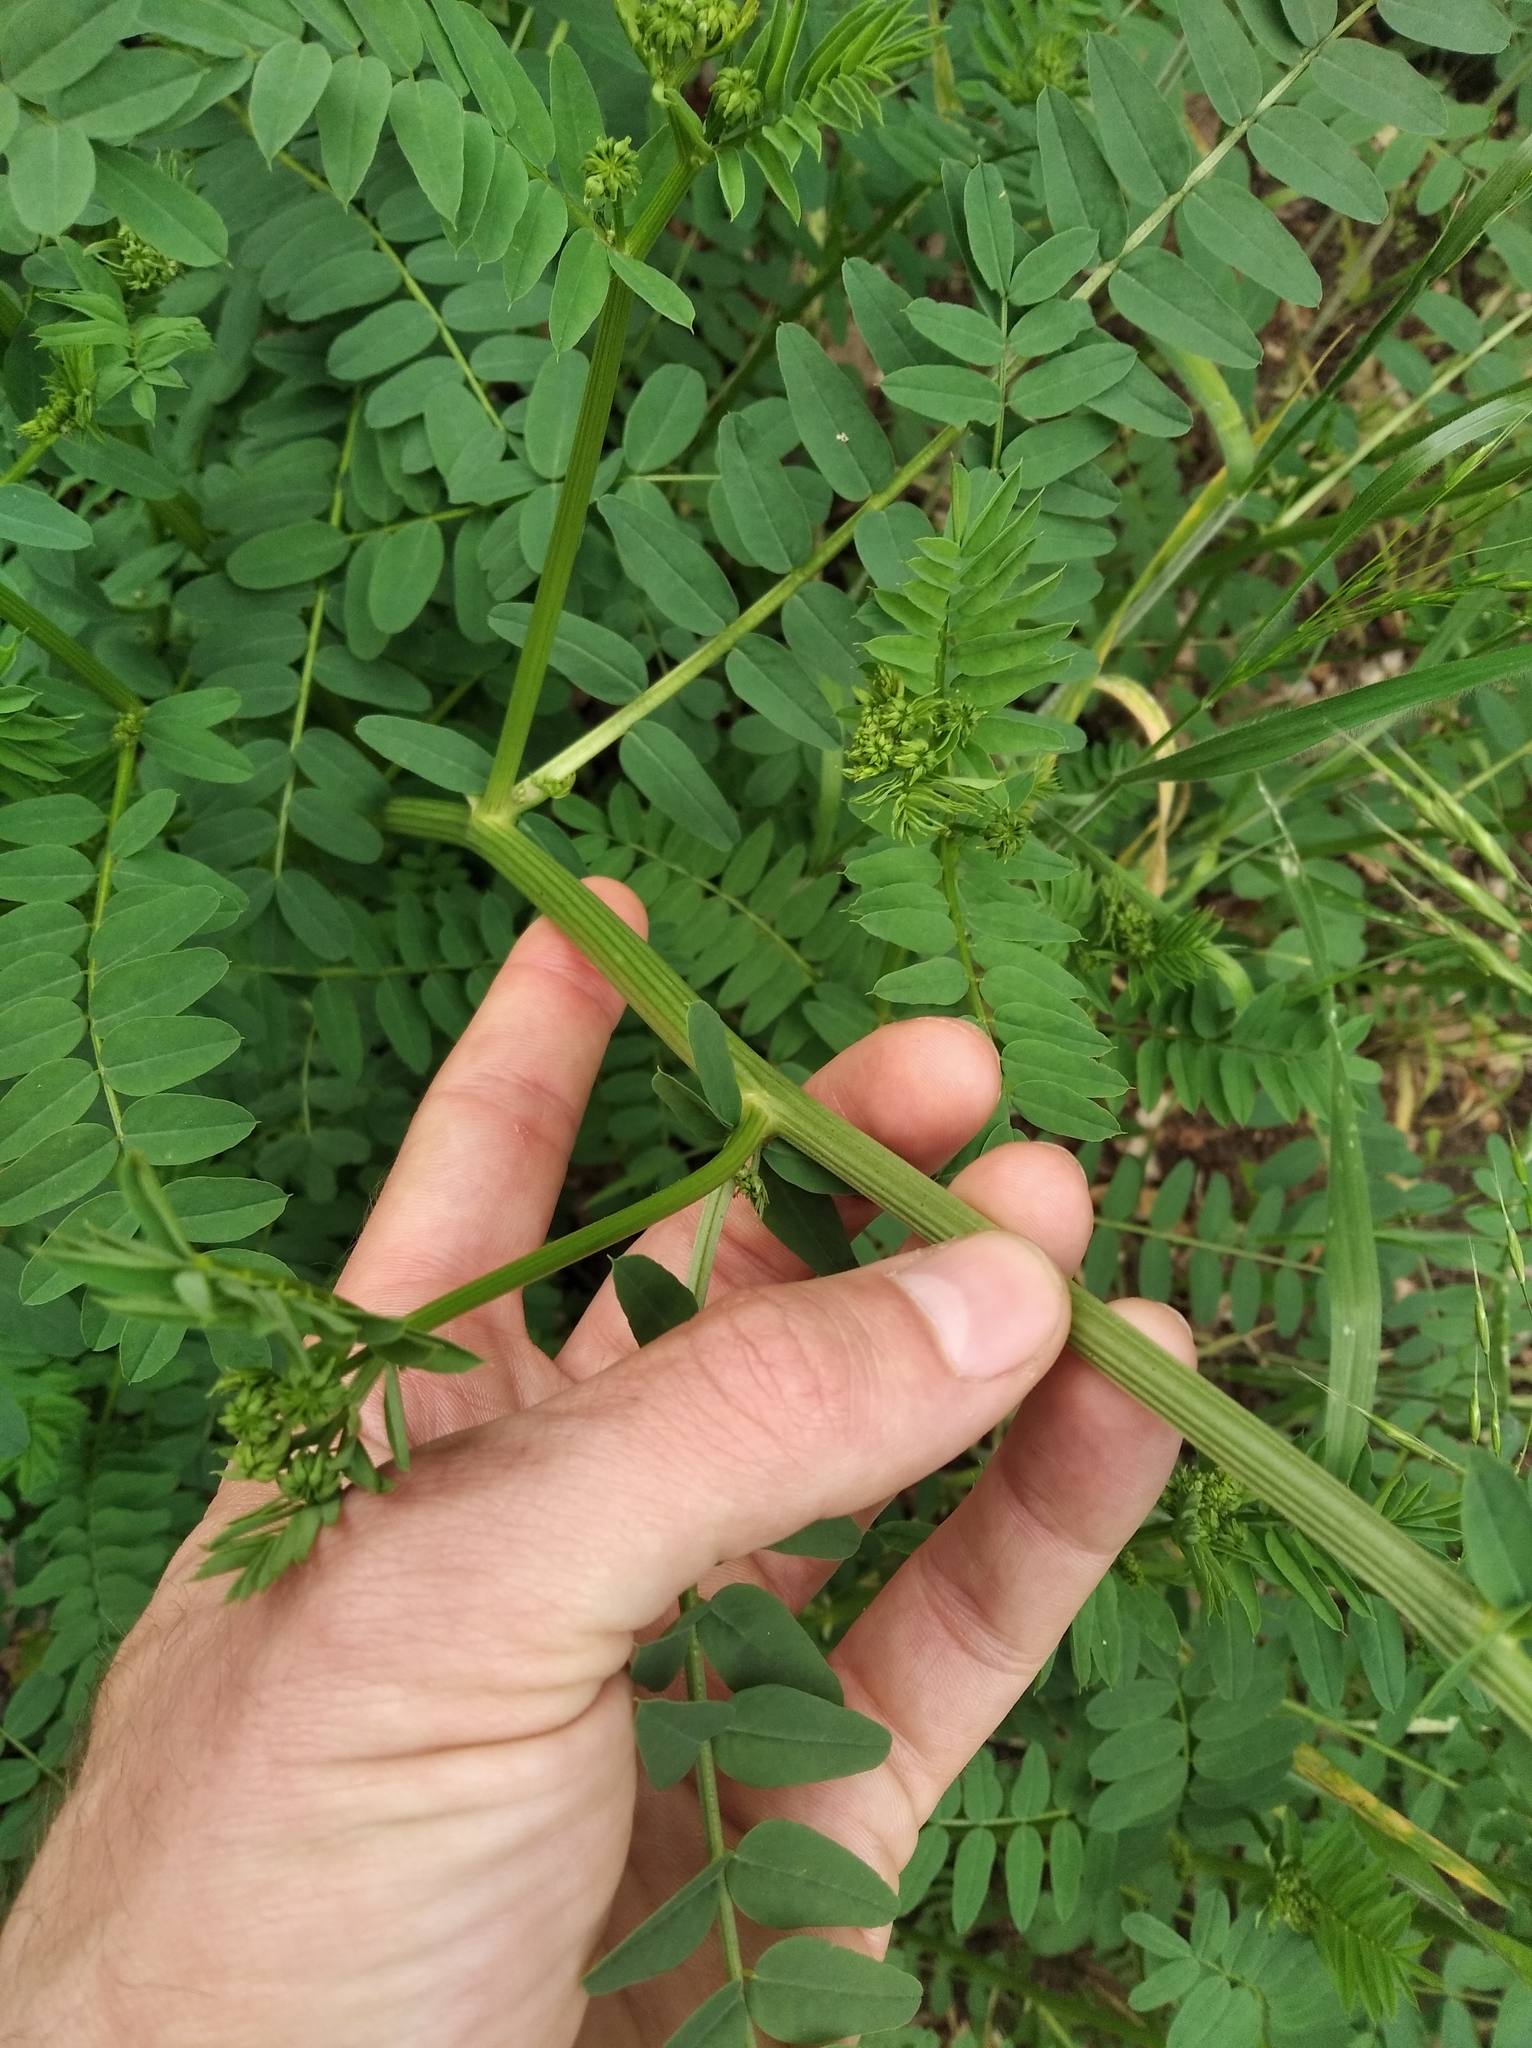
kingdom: Plantae
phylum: Tracheophyta
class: Magnoliopsida
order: Fabales
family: Fabaceae
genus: Coronilla
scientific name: Coronilla varia
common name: Crownvetch
